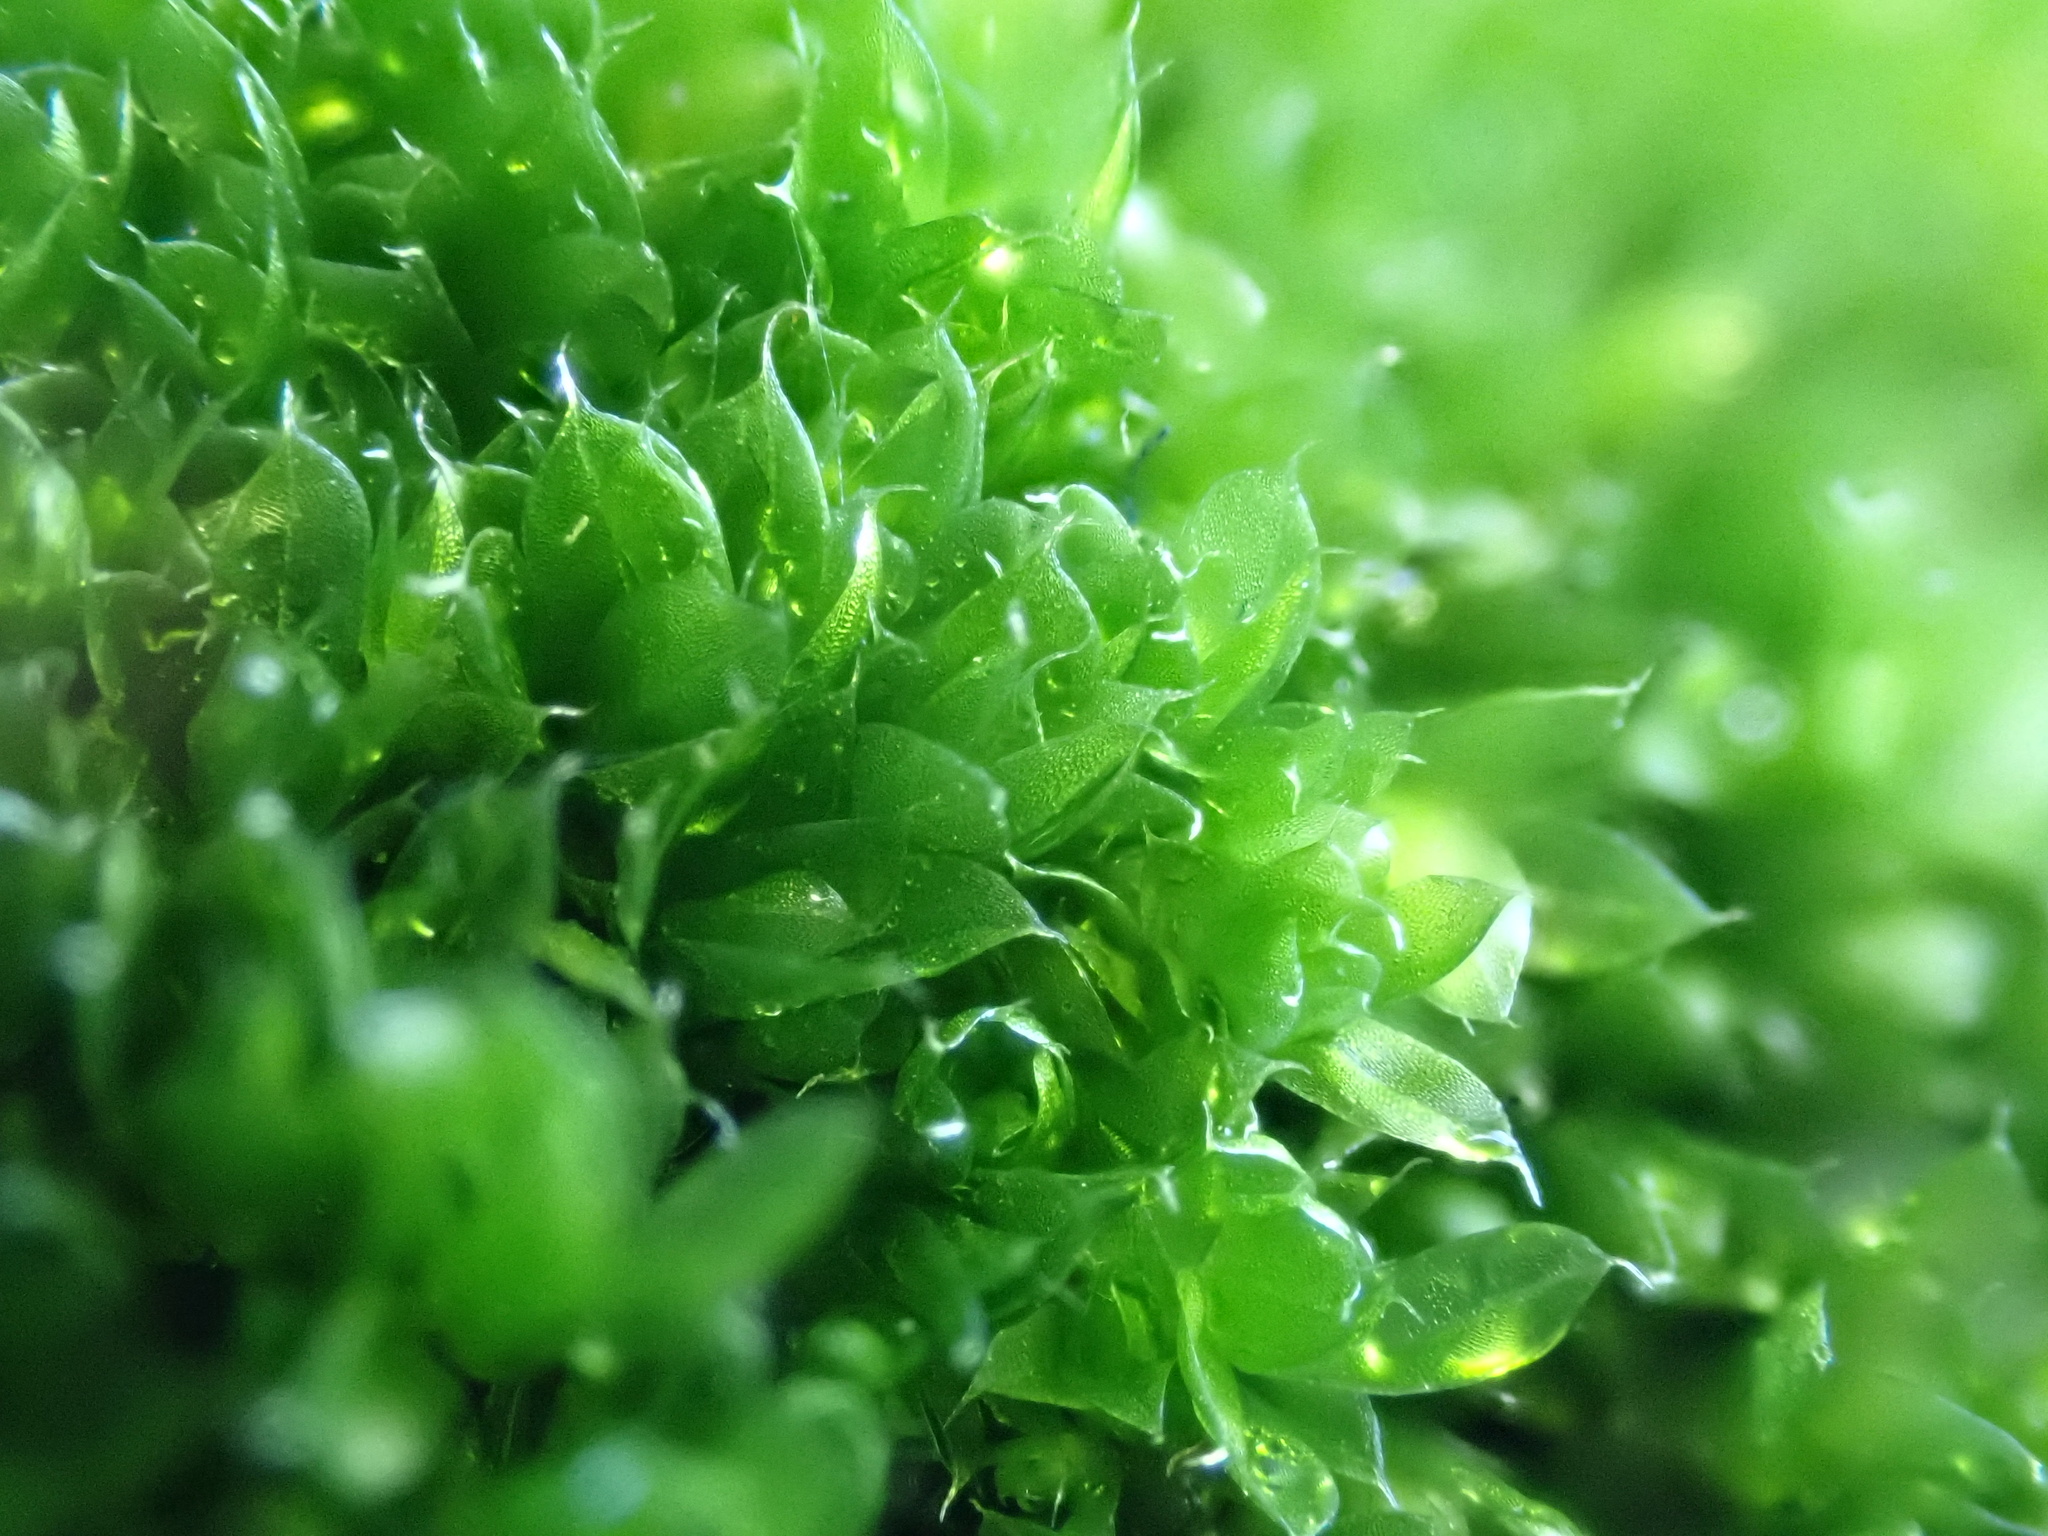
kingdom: Plantae
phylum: Bryophyta
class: Bryopsida
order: Bryales
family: Bryaceae
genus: Rosulabryum
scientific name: Rosulabryum capillare
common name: Capillary thread-moss
